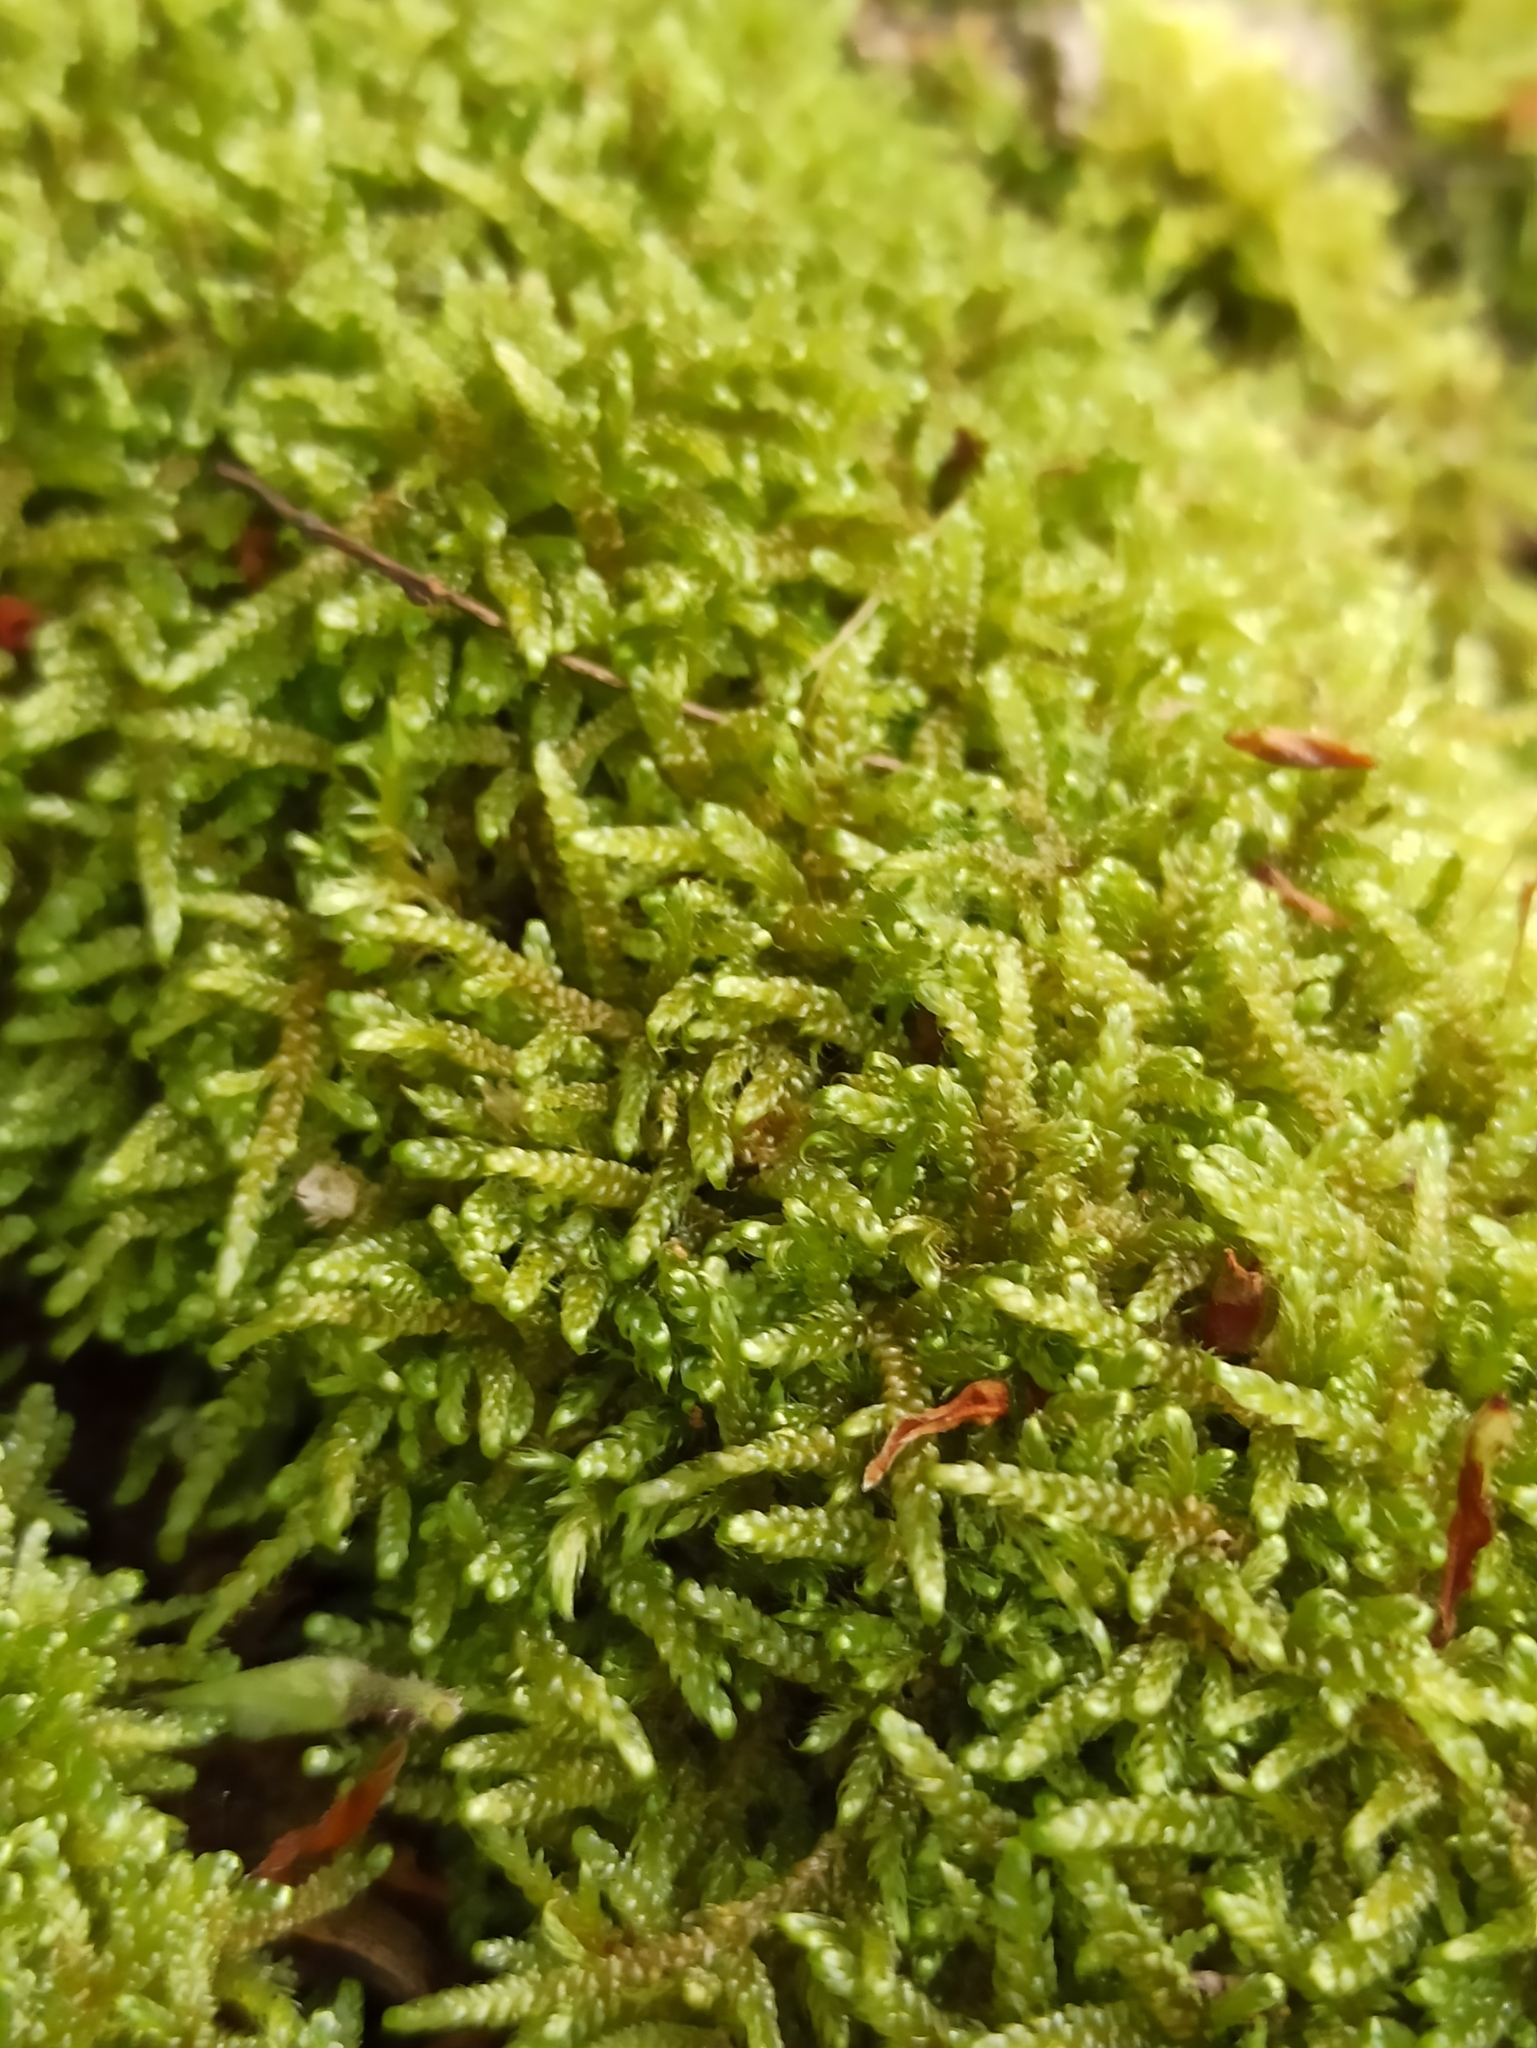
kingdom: Plantae
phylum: Bryophyta
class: Bryopsida
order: Hypnales
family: Hypnaceae
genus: Hypnum
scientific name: Hypnum cupressiforme
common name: Cypress-leaved plait-moss
